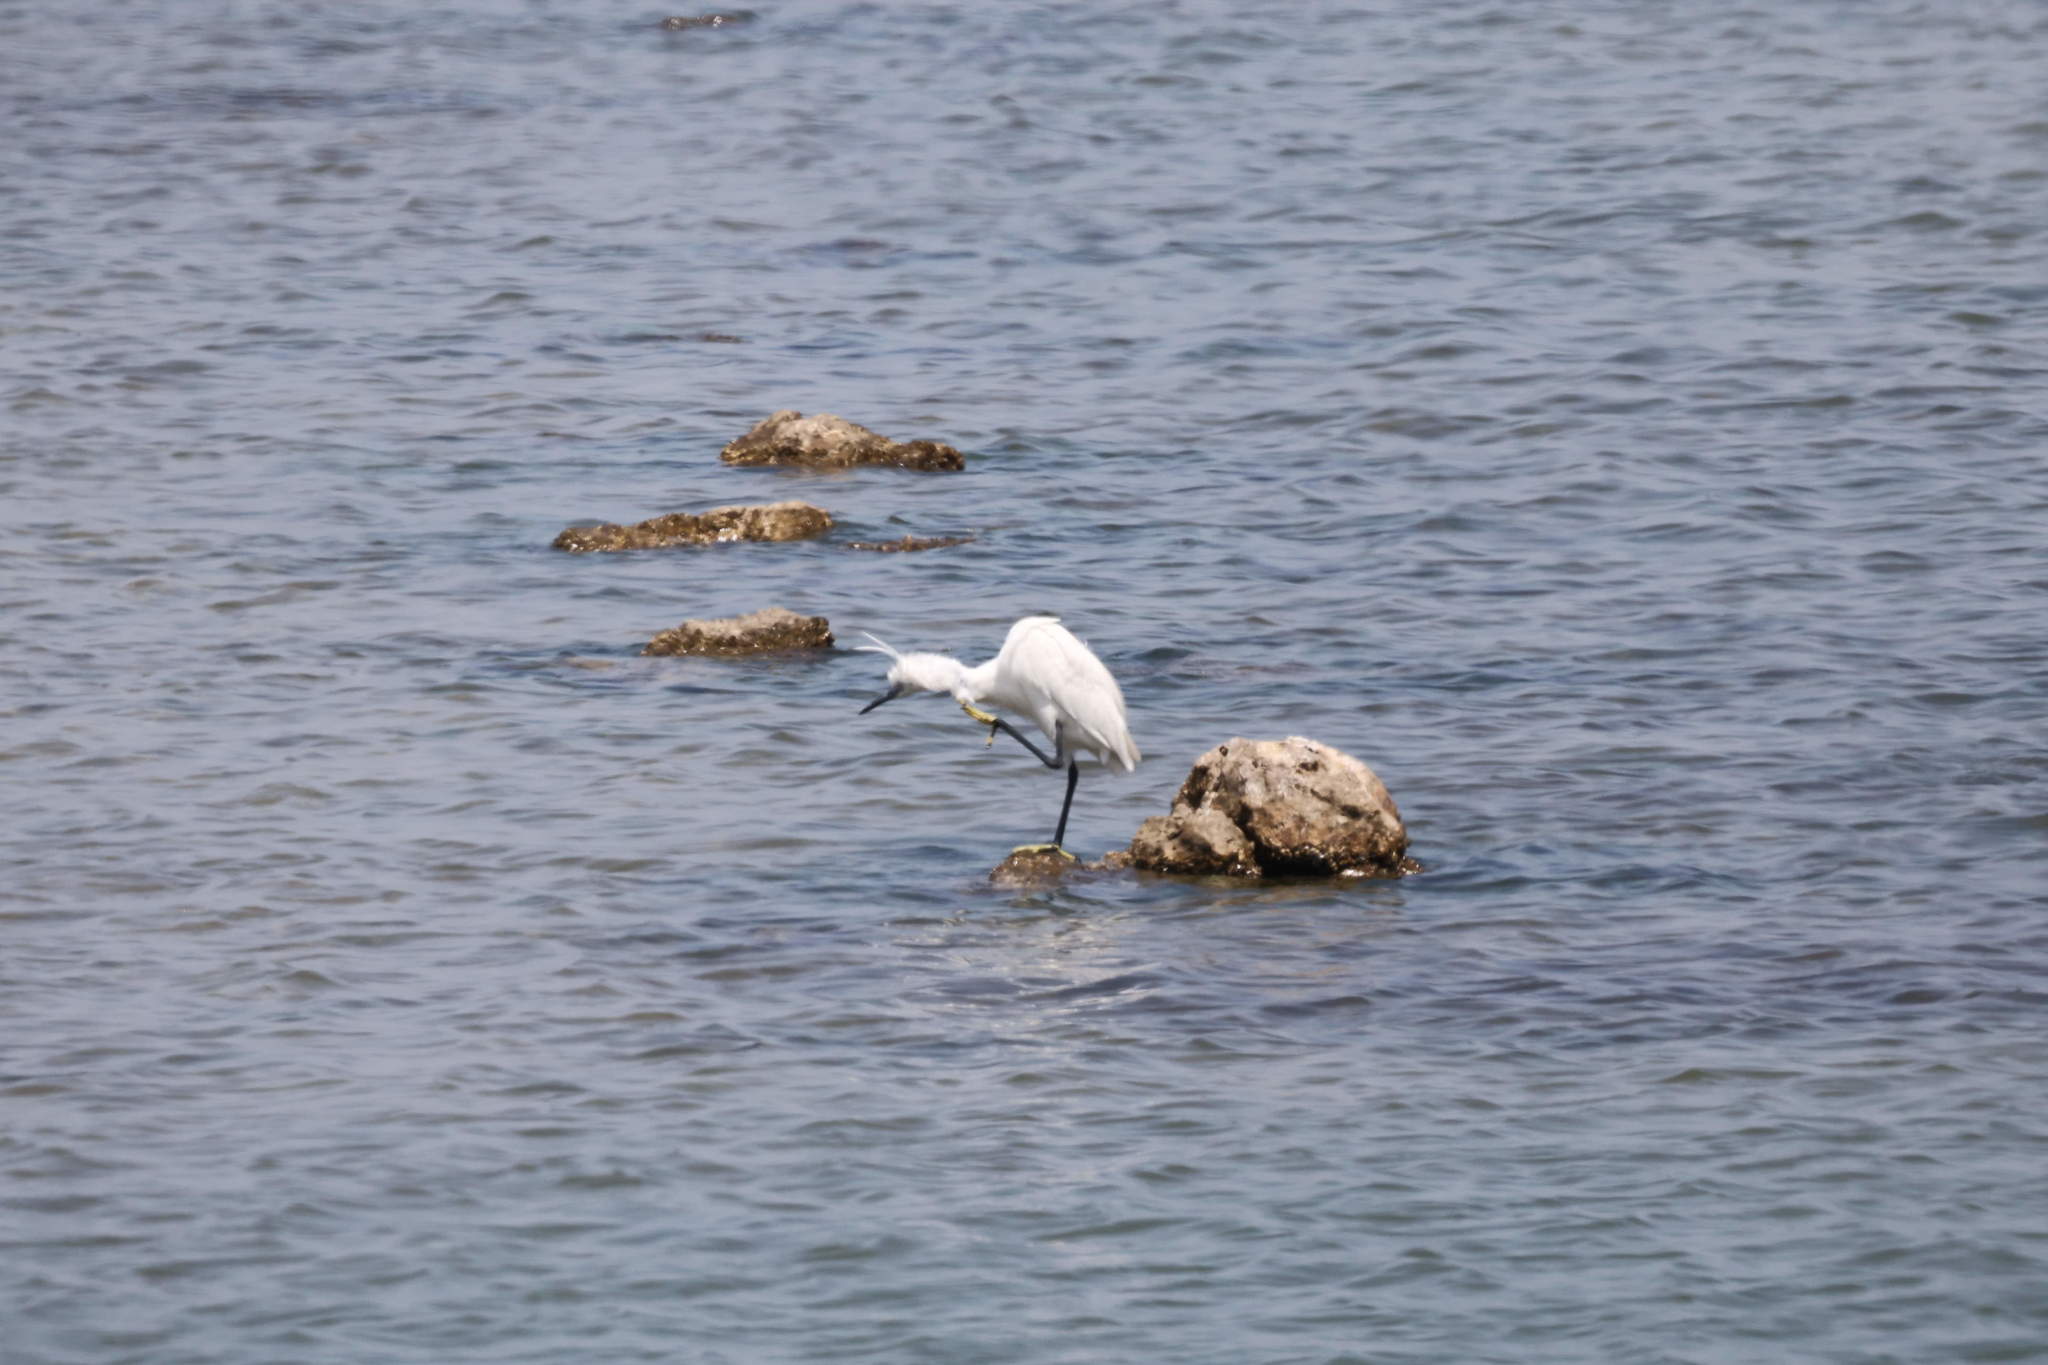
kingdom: Animalia
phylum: Chordata
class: Aves
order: Pelecaniformes
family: Ardeidae
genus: Egretta
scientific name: Egretta garzetta
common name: Little egret
